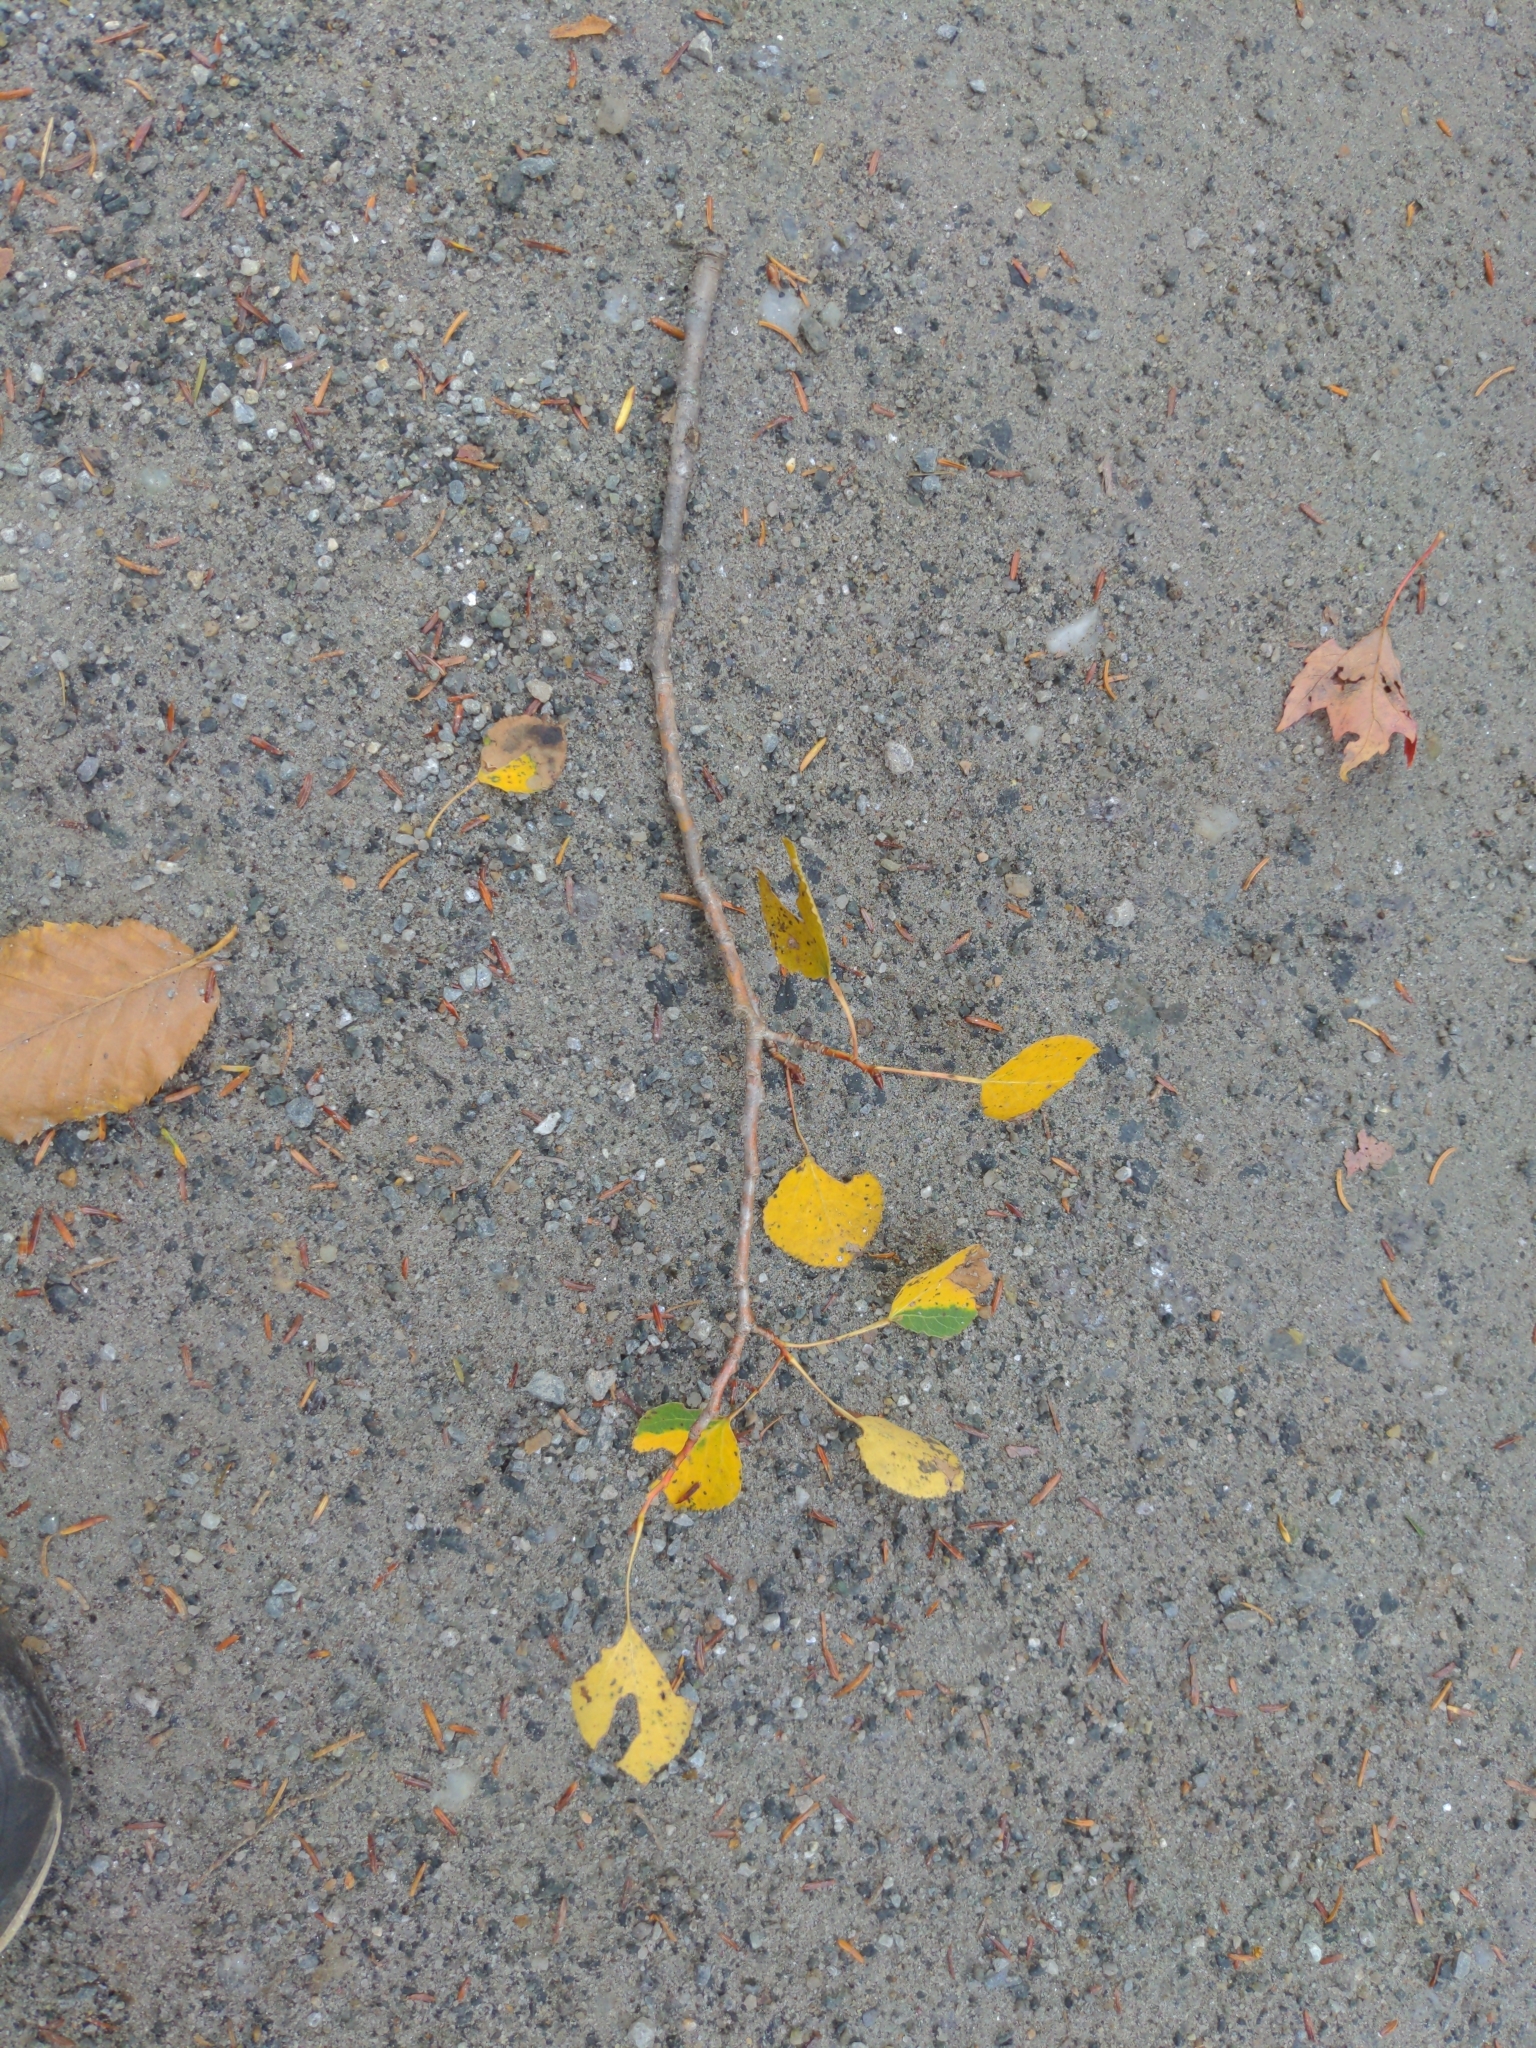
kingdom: Plantae
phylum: Tracheophyta
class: Magnoliopsida
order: Malpighiales
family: Salicaceae
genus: Populus
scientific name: Populus tremuloides
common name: Quaking aspen
